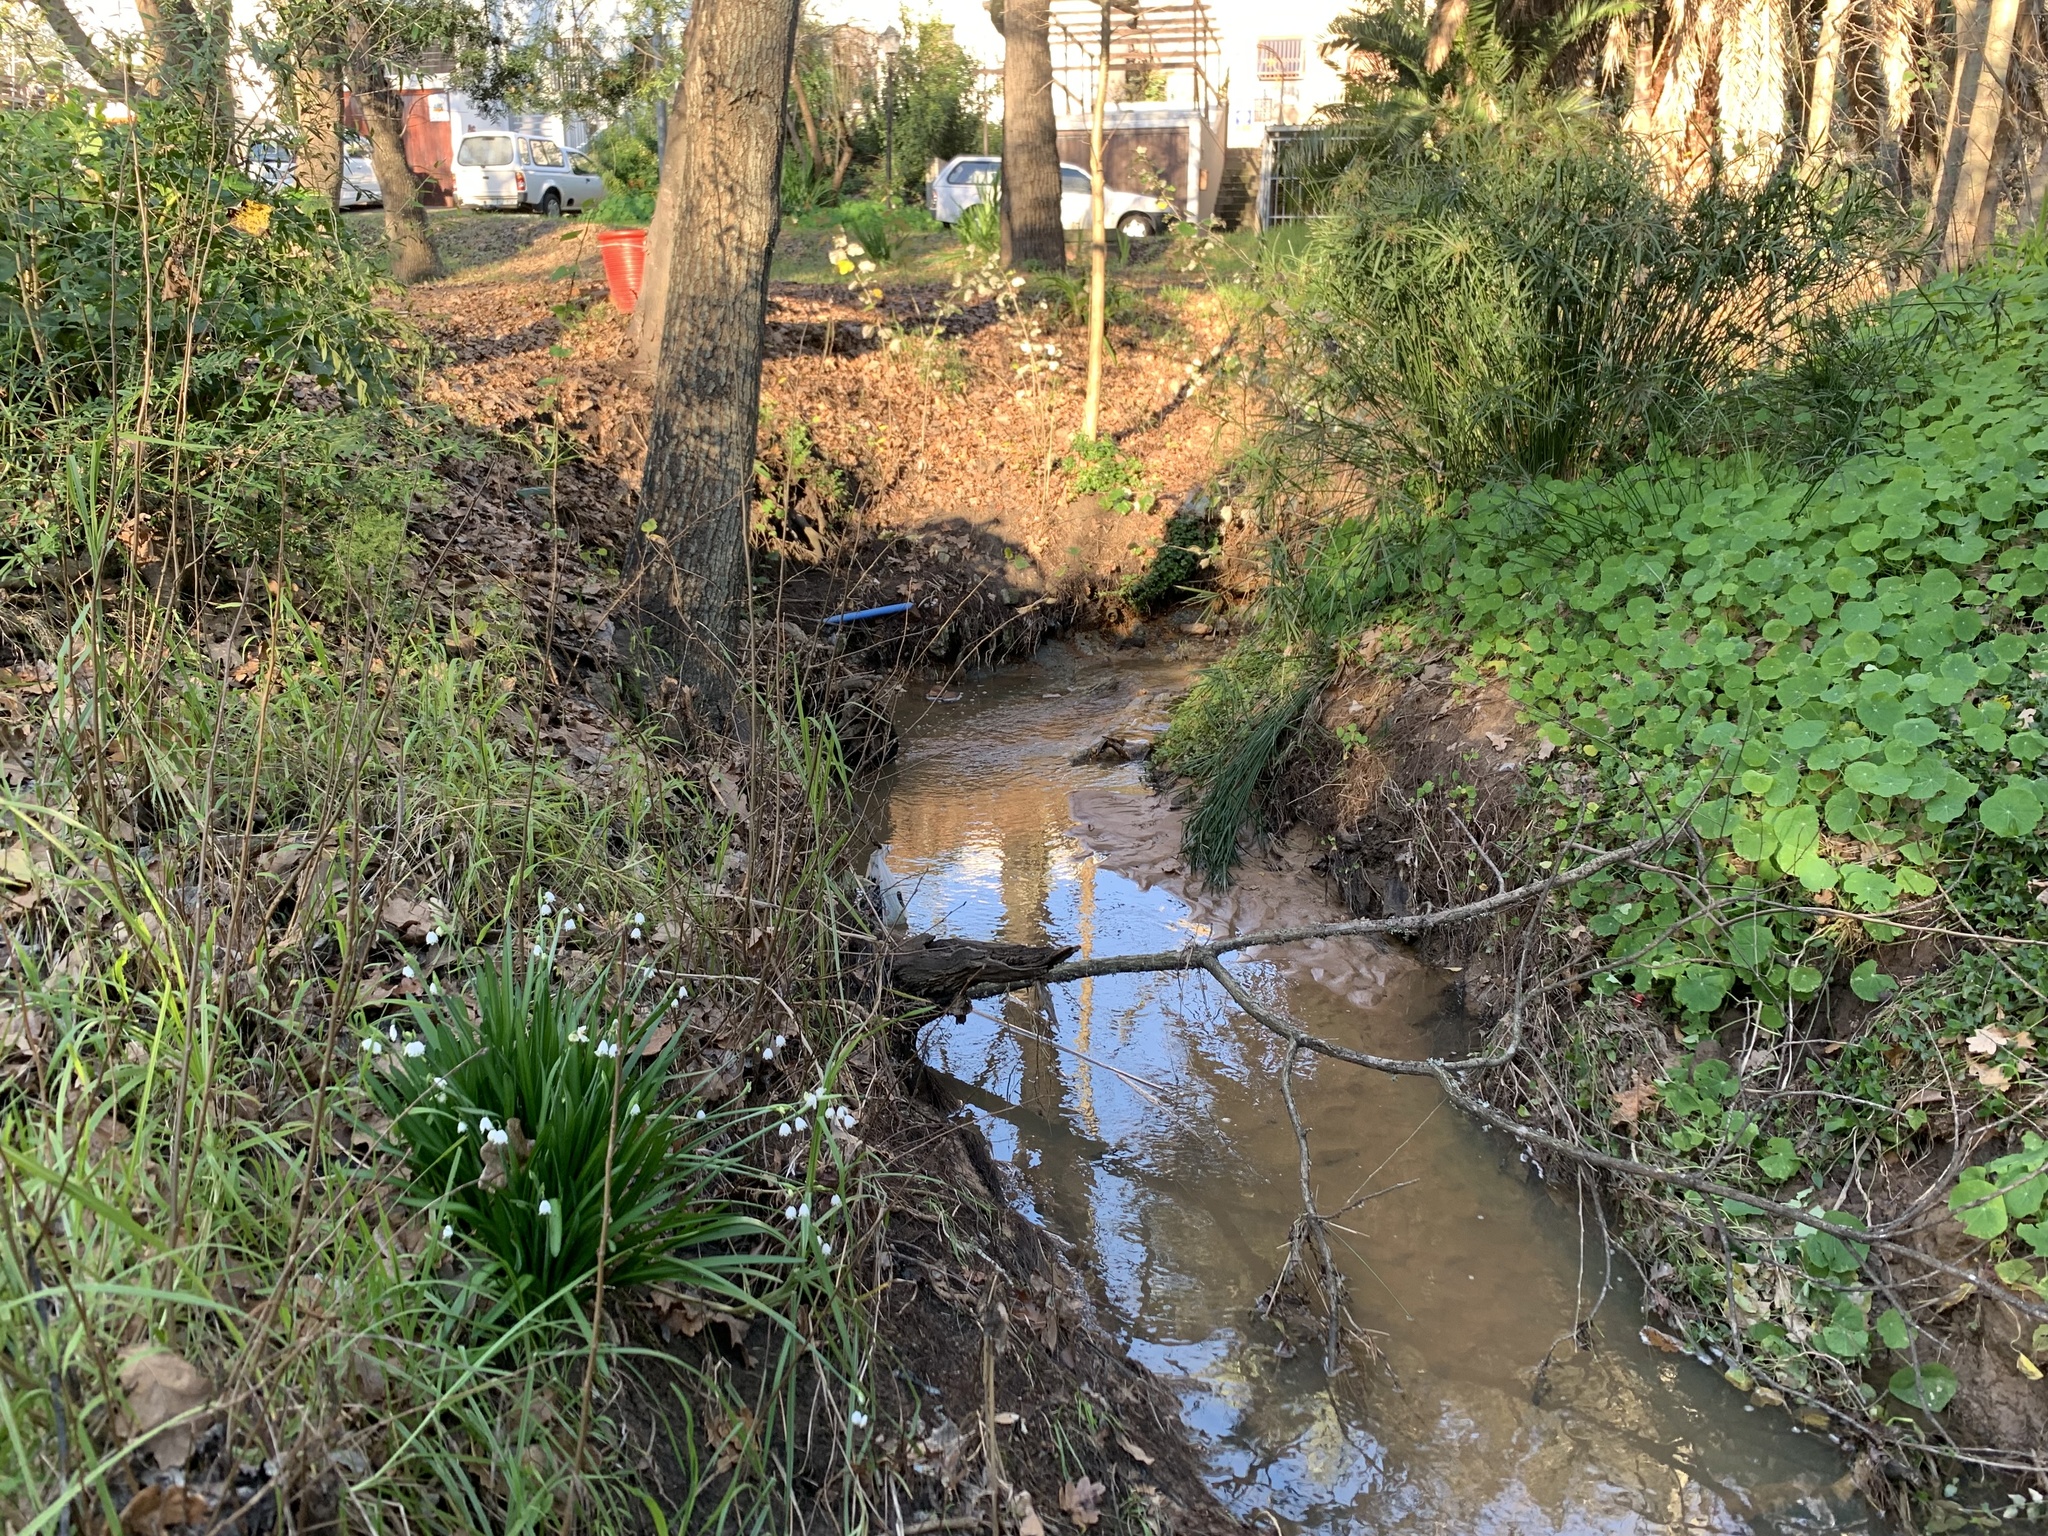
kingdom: Plantae
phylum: Tracheophyta
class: Liliopsida
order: Asparagales
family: Amaryllidaceae
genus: Leucojum
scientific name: Leucojum aestivum
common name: Summer snowflake
